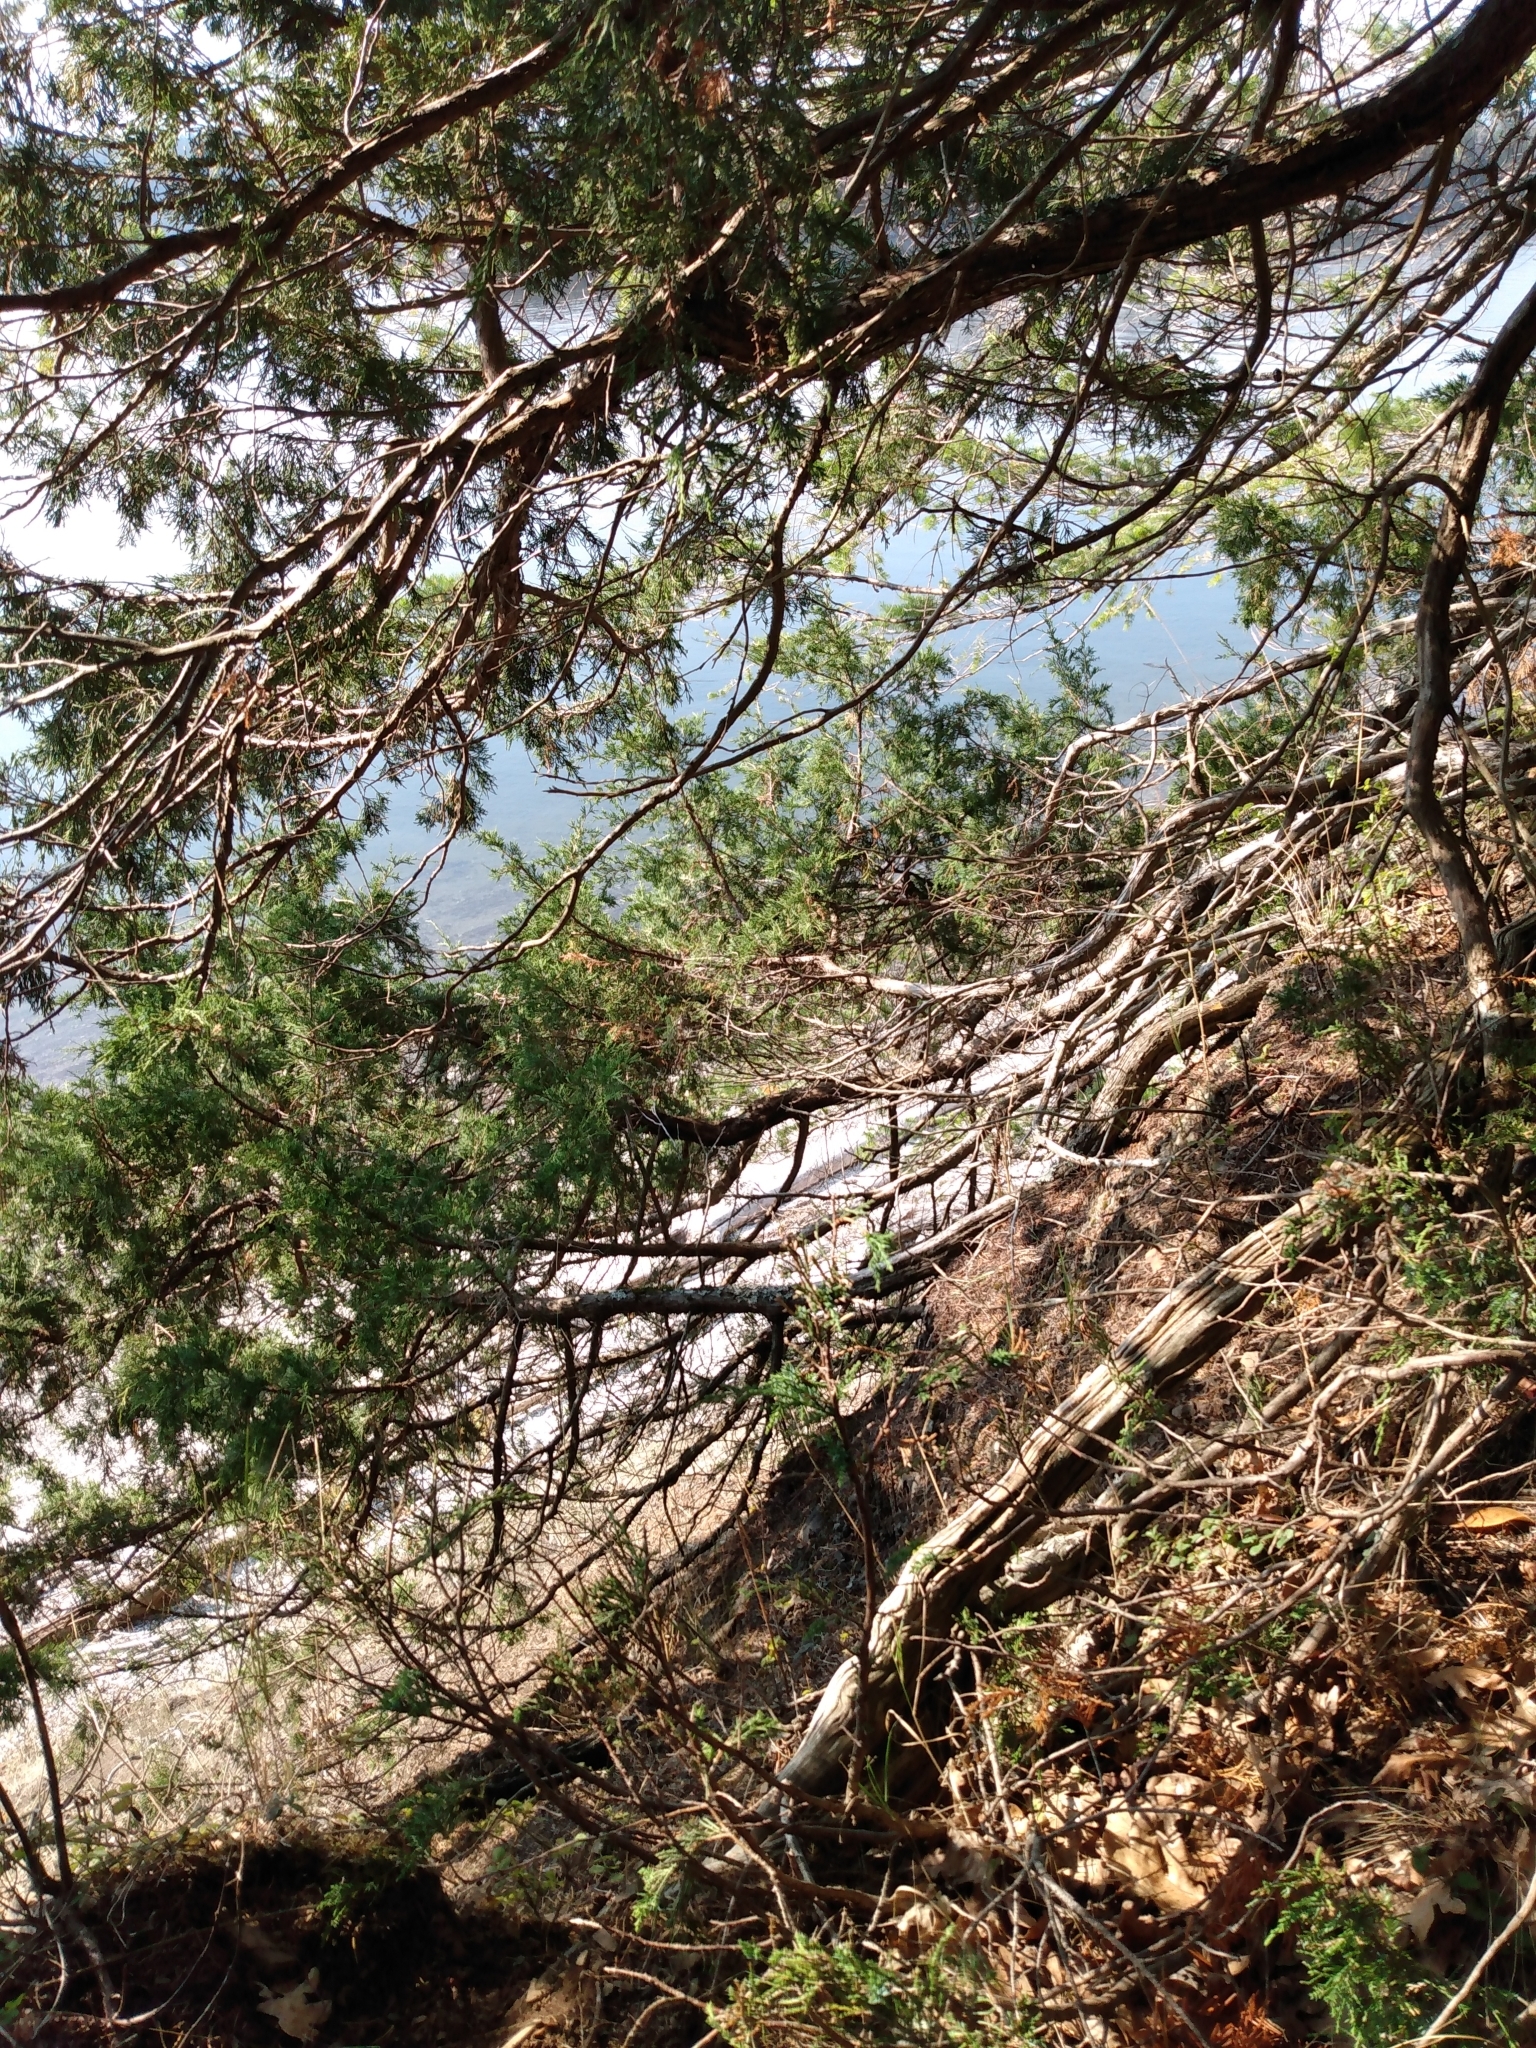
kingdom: Plantae
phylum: Tracheophyta
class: Pinopsida
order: Pinales
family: Cupressaceae
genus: Juniperus
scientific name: Juniperus scopulorum
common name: Rocky mountain juniper
